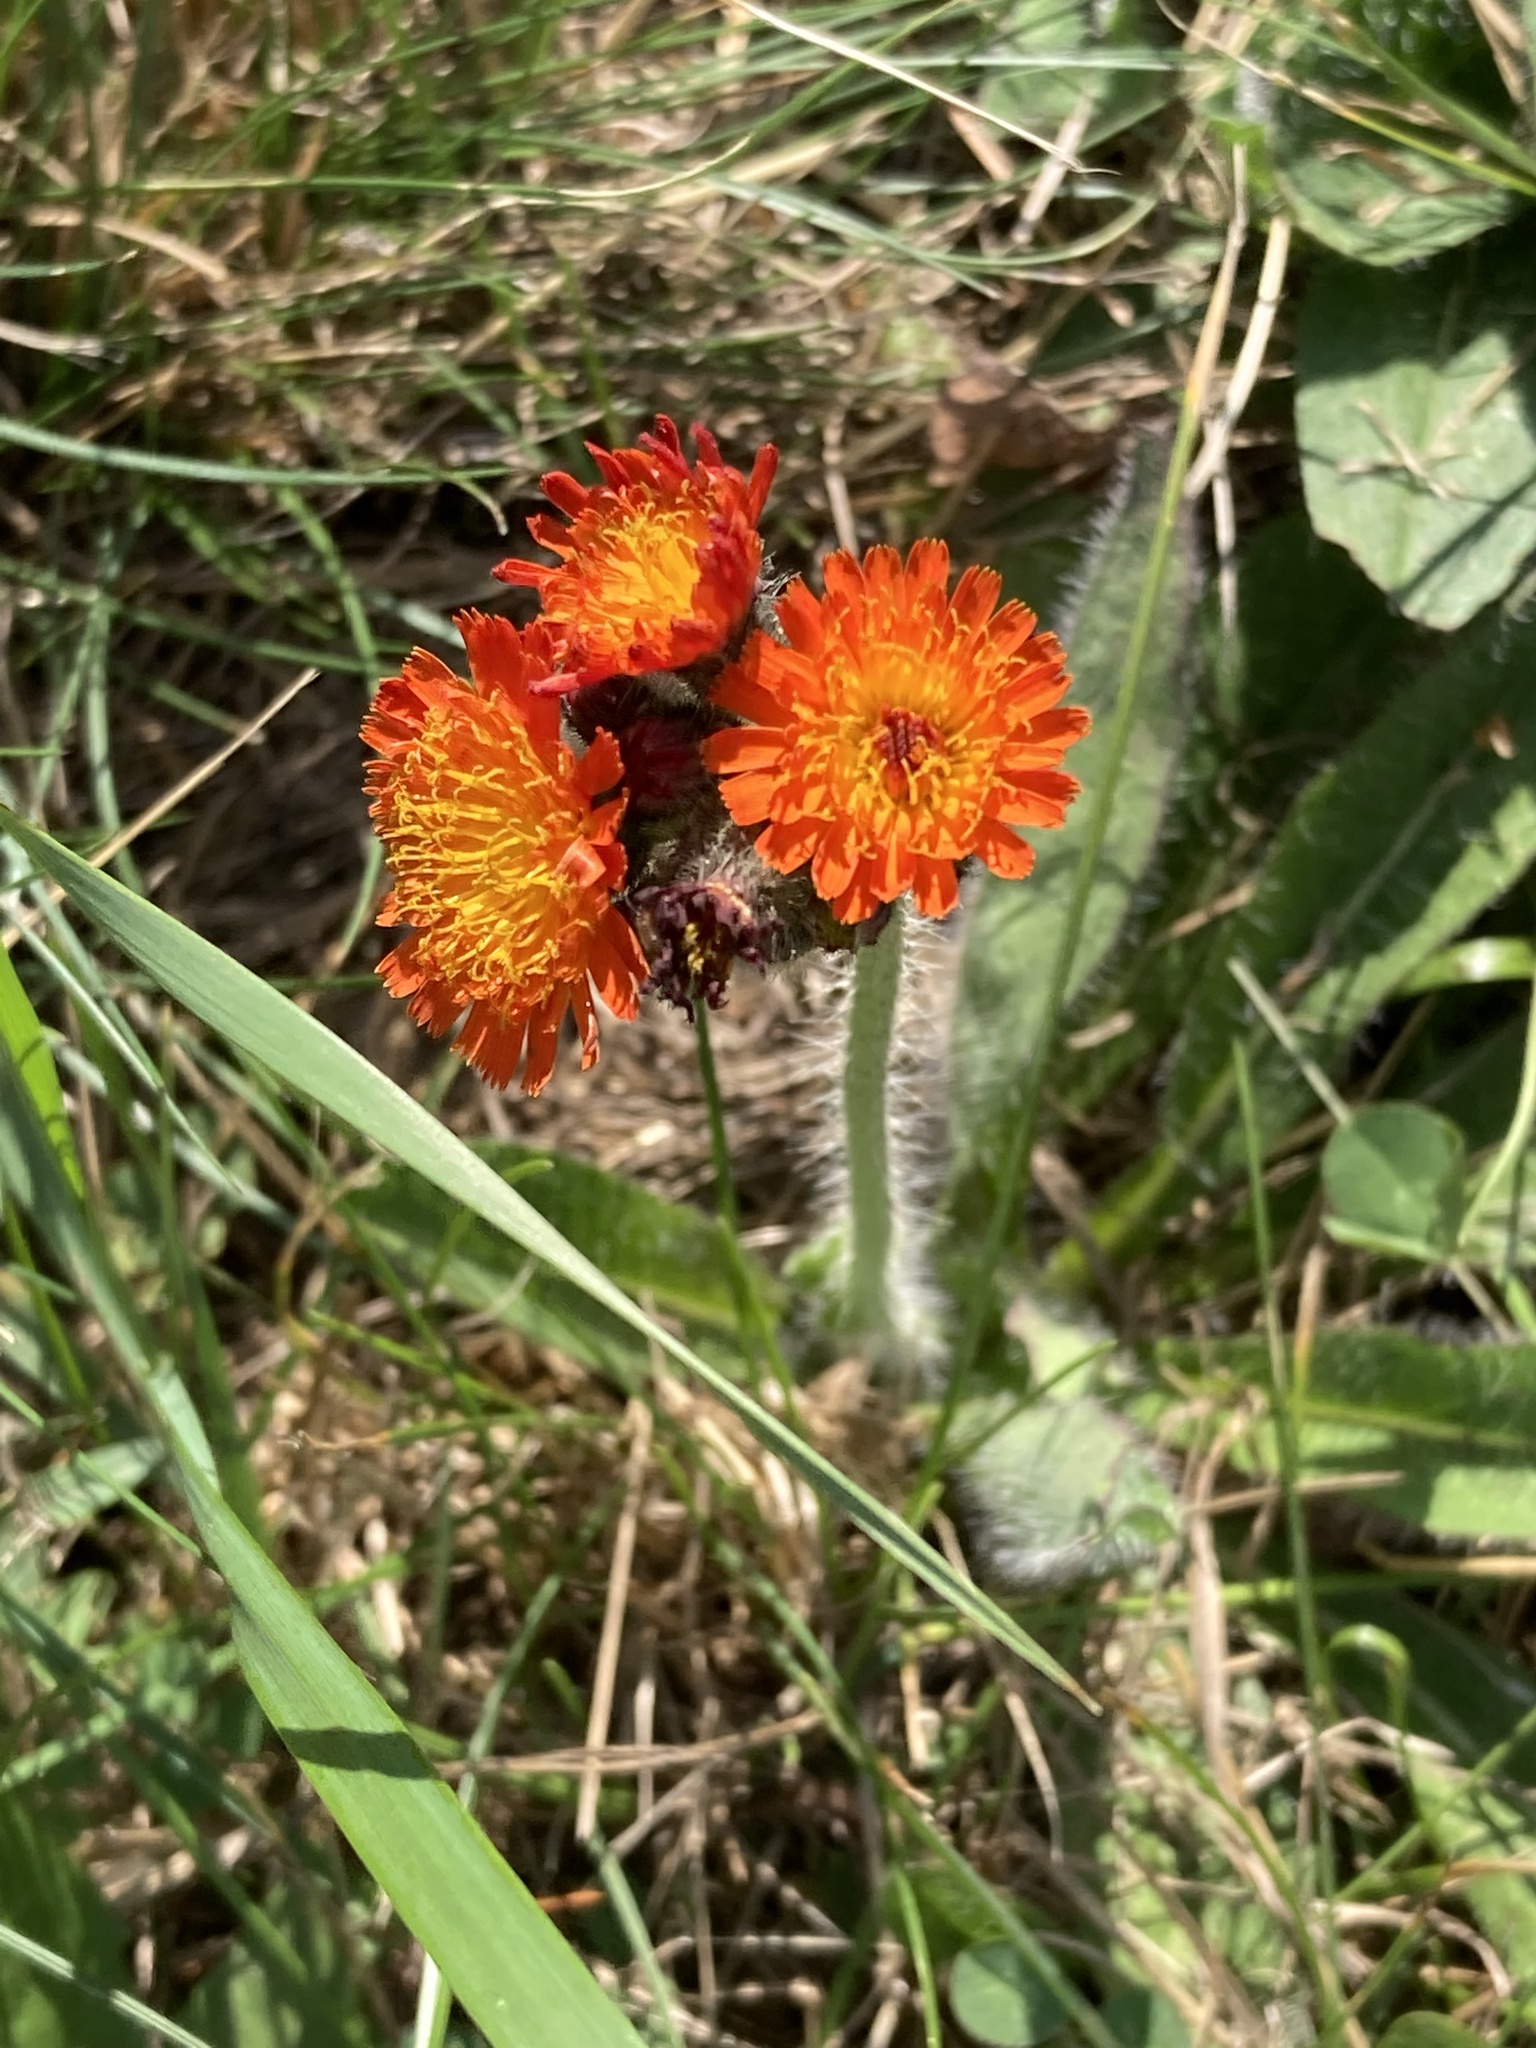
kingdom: Plantae
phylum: Tracheophyta
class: Magnoliopsida
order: Asterales
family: Asteraceae
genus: Pilosella
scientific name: Pilosella aurantiaca
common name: Fox-and-cubs
